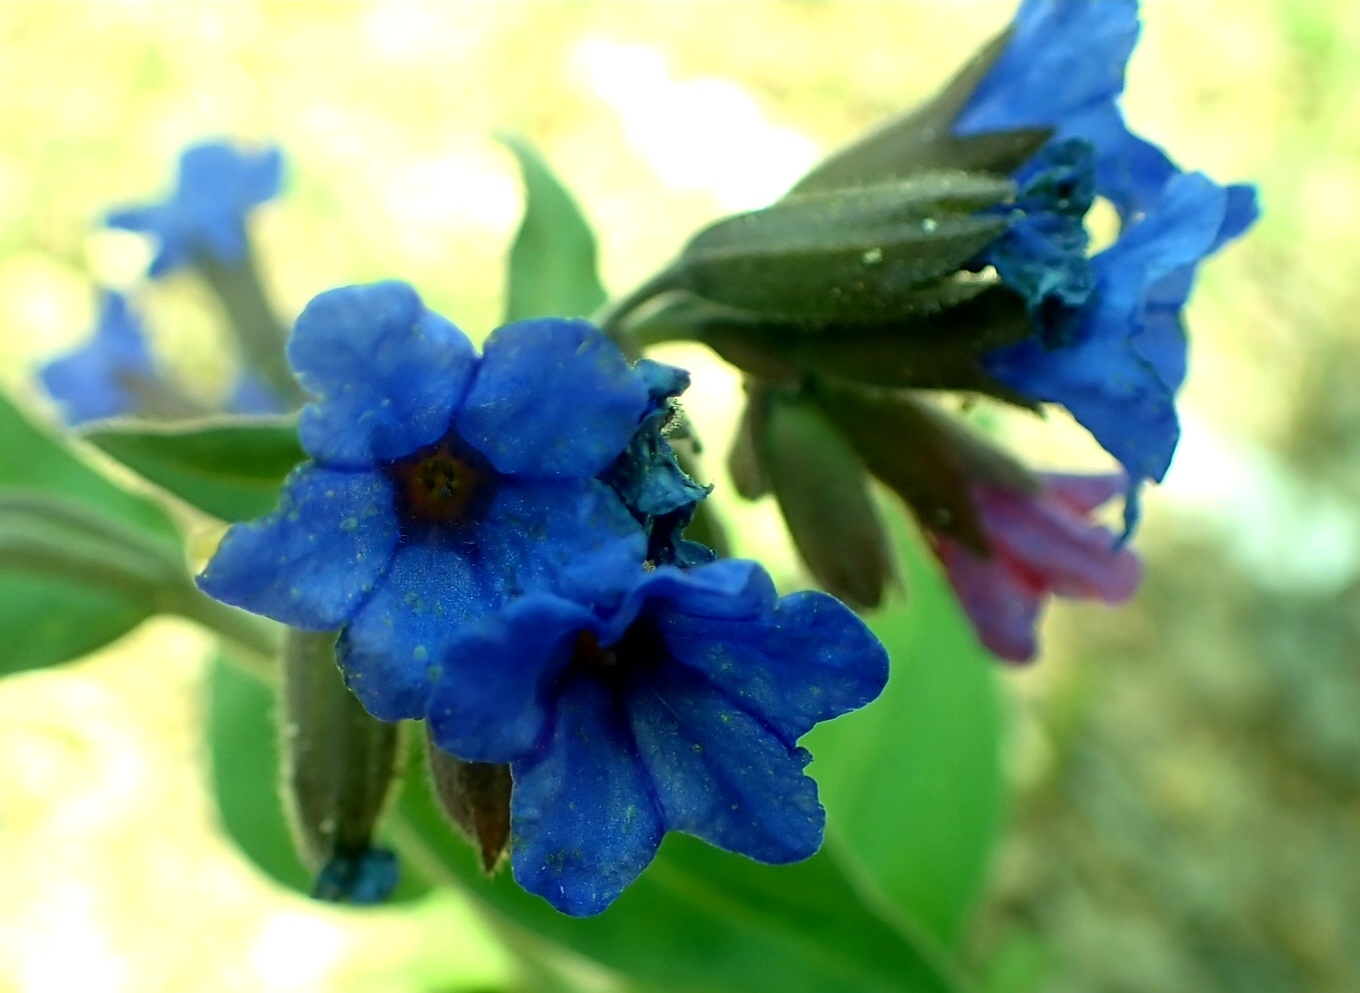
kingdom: Plantae
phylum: Tracheophyta
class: Magnoliopsida
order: Boraginales
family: Boraginaceae
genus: Pulmonaria
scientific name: Pulmonaria mollis
